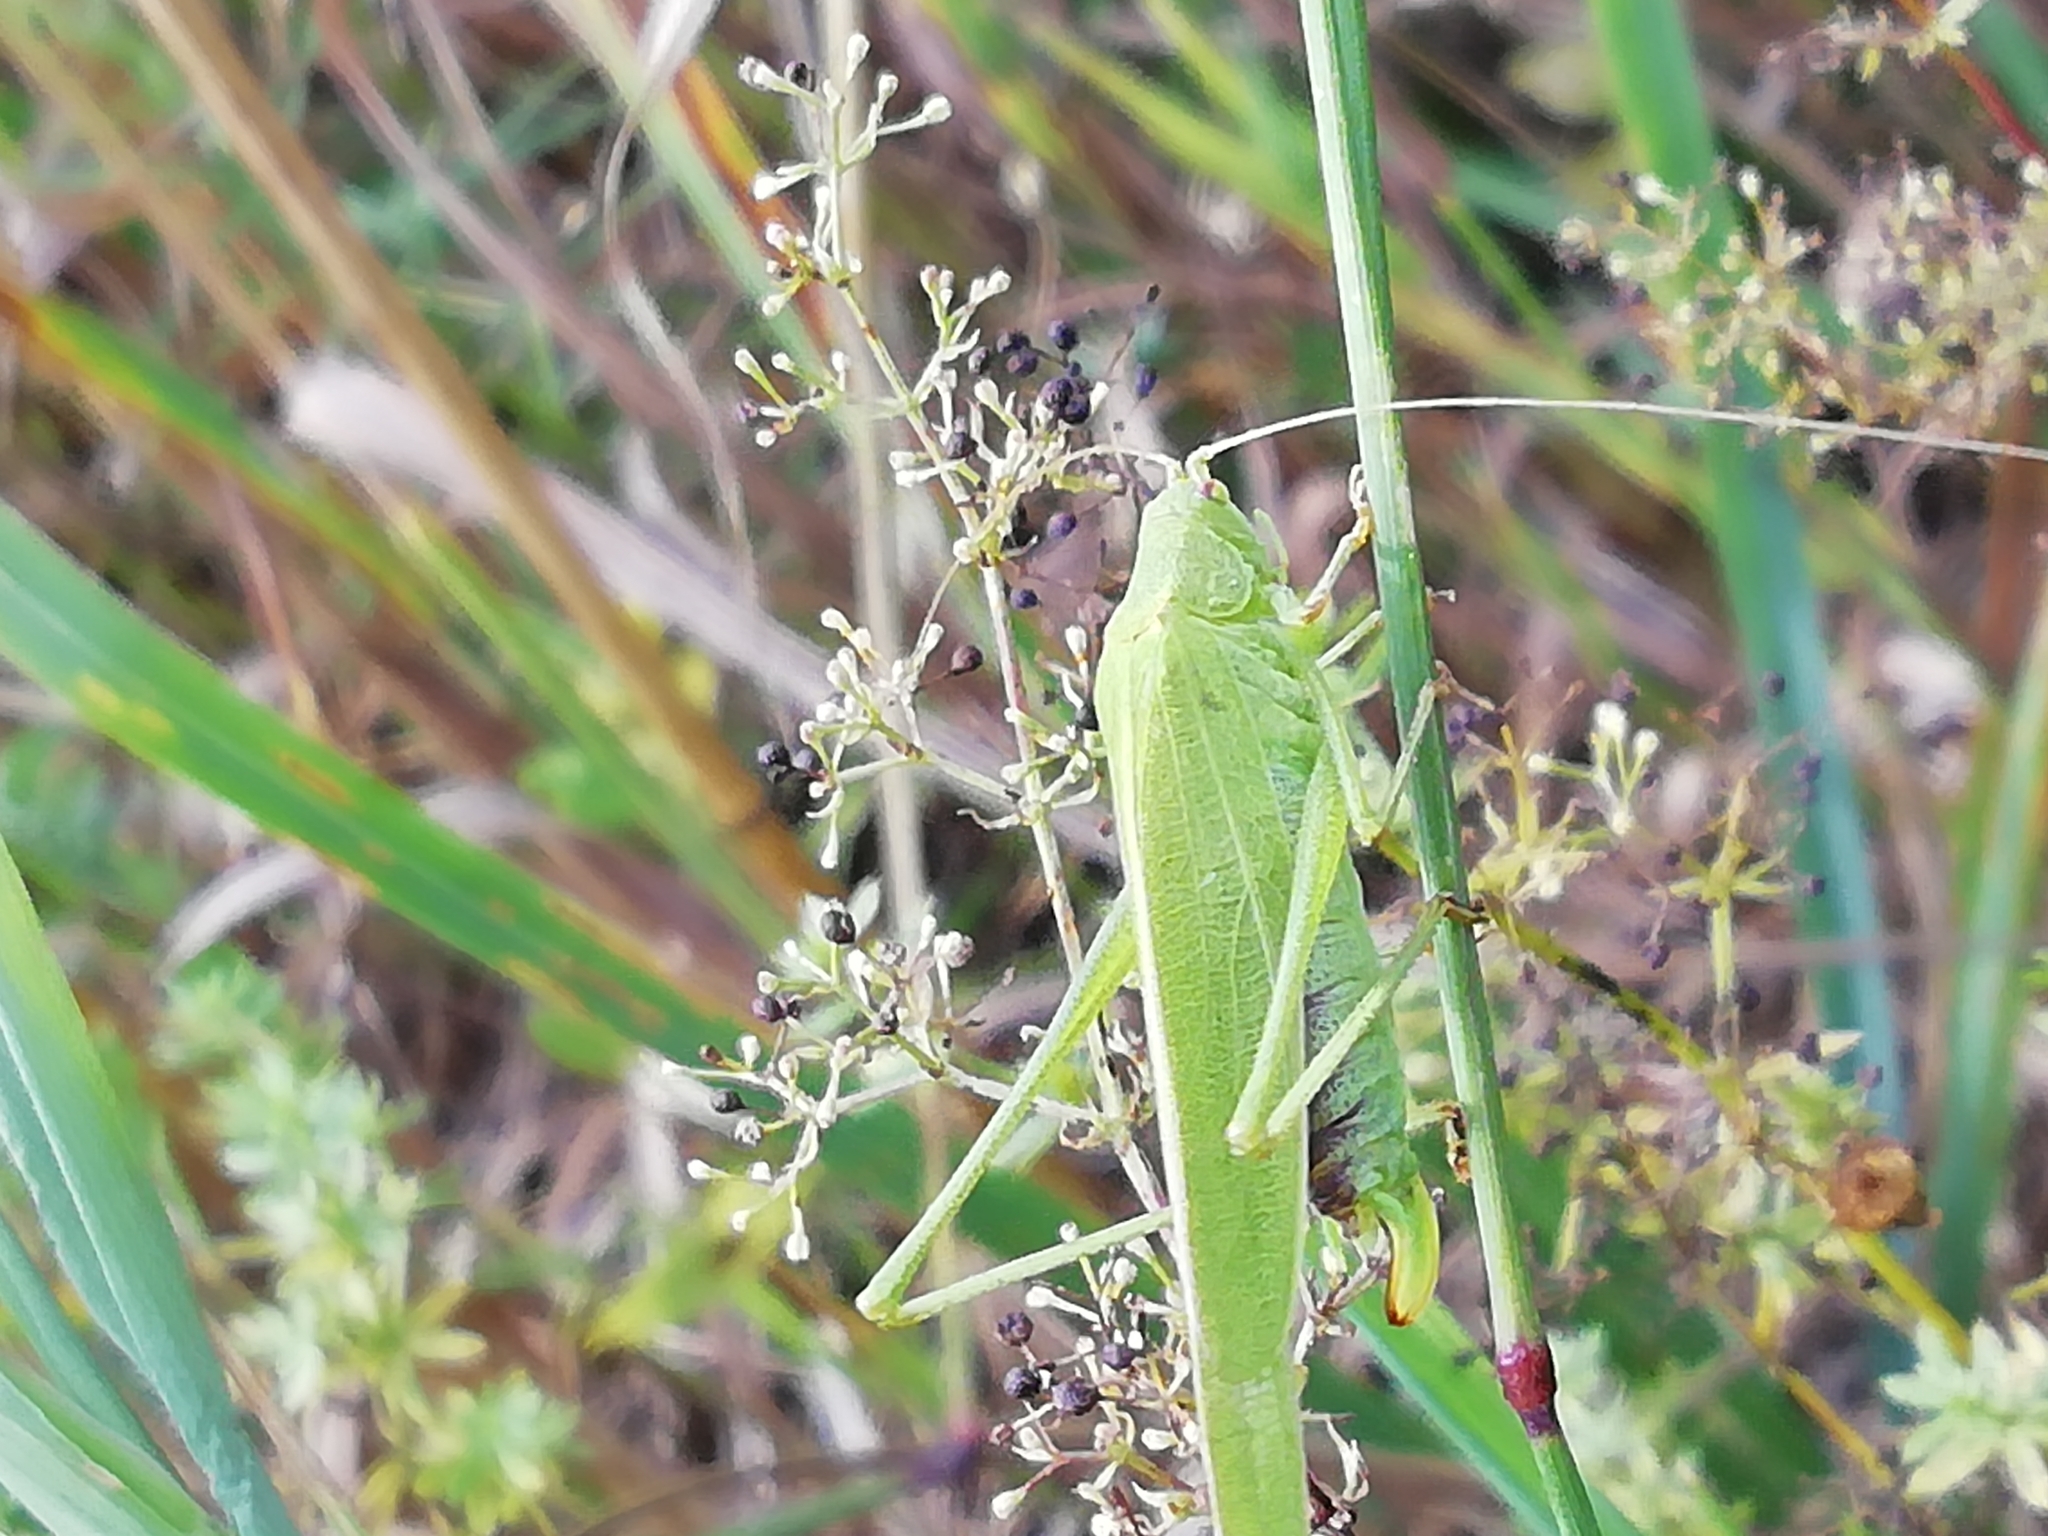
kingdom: Animalia
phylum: Arthropoda
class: Insecta
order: Orthoptera
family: Tettigoniidae
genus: Phaneroptera
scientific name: Phaneroptera falcata
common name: Sickle-bearing bush-cricket
